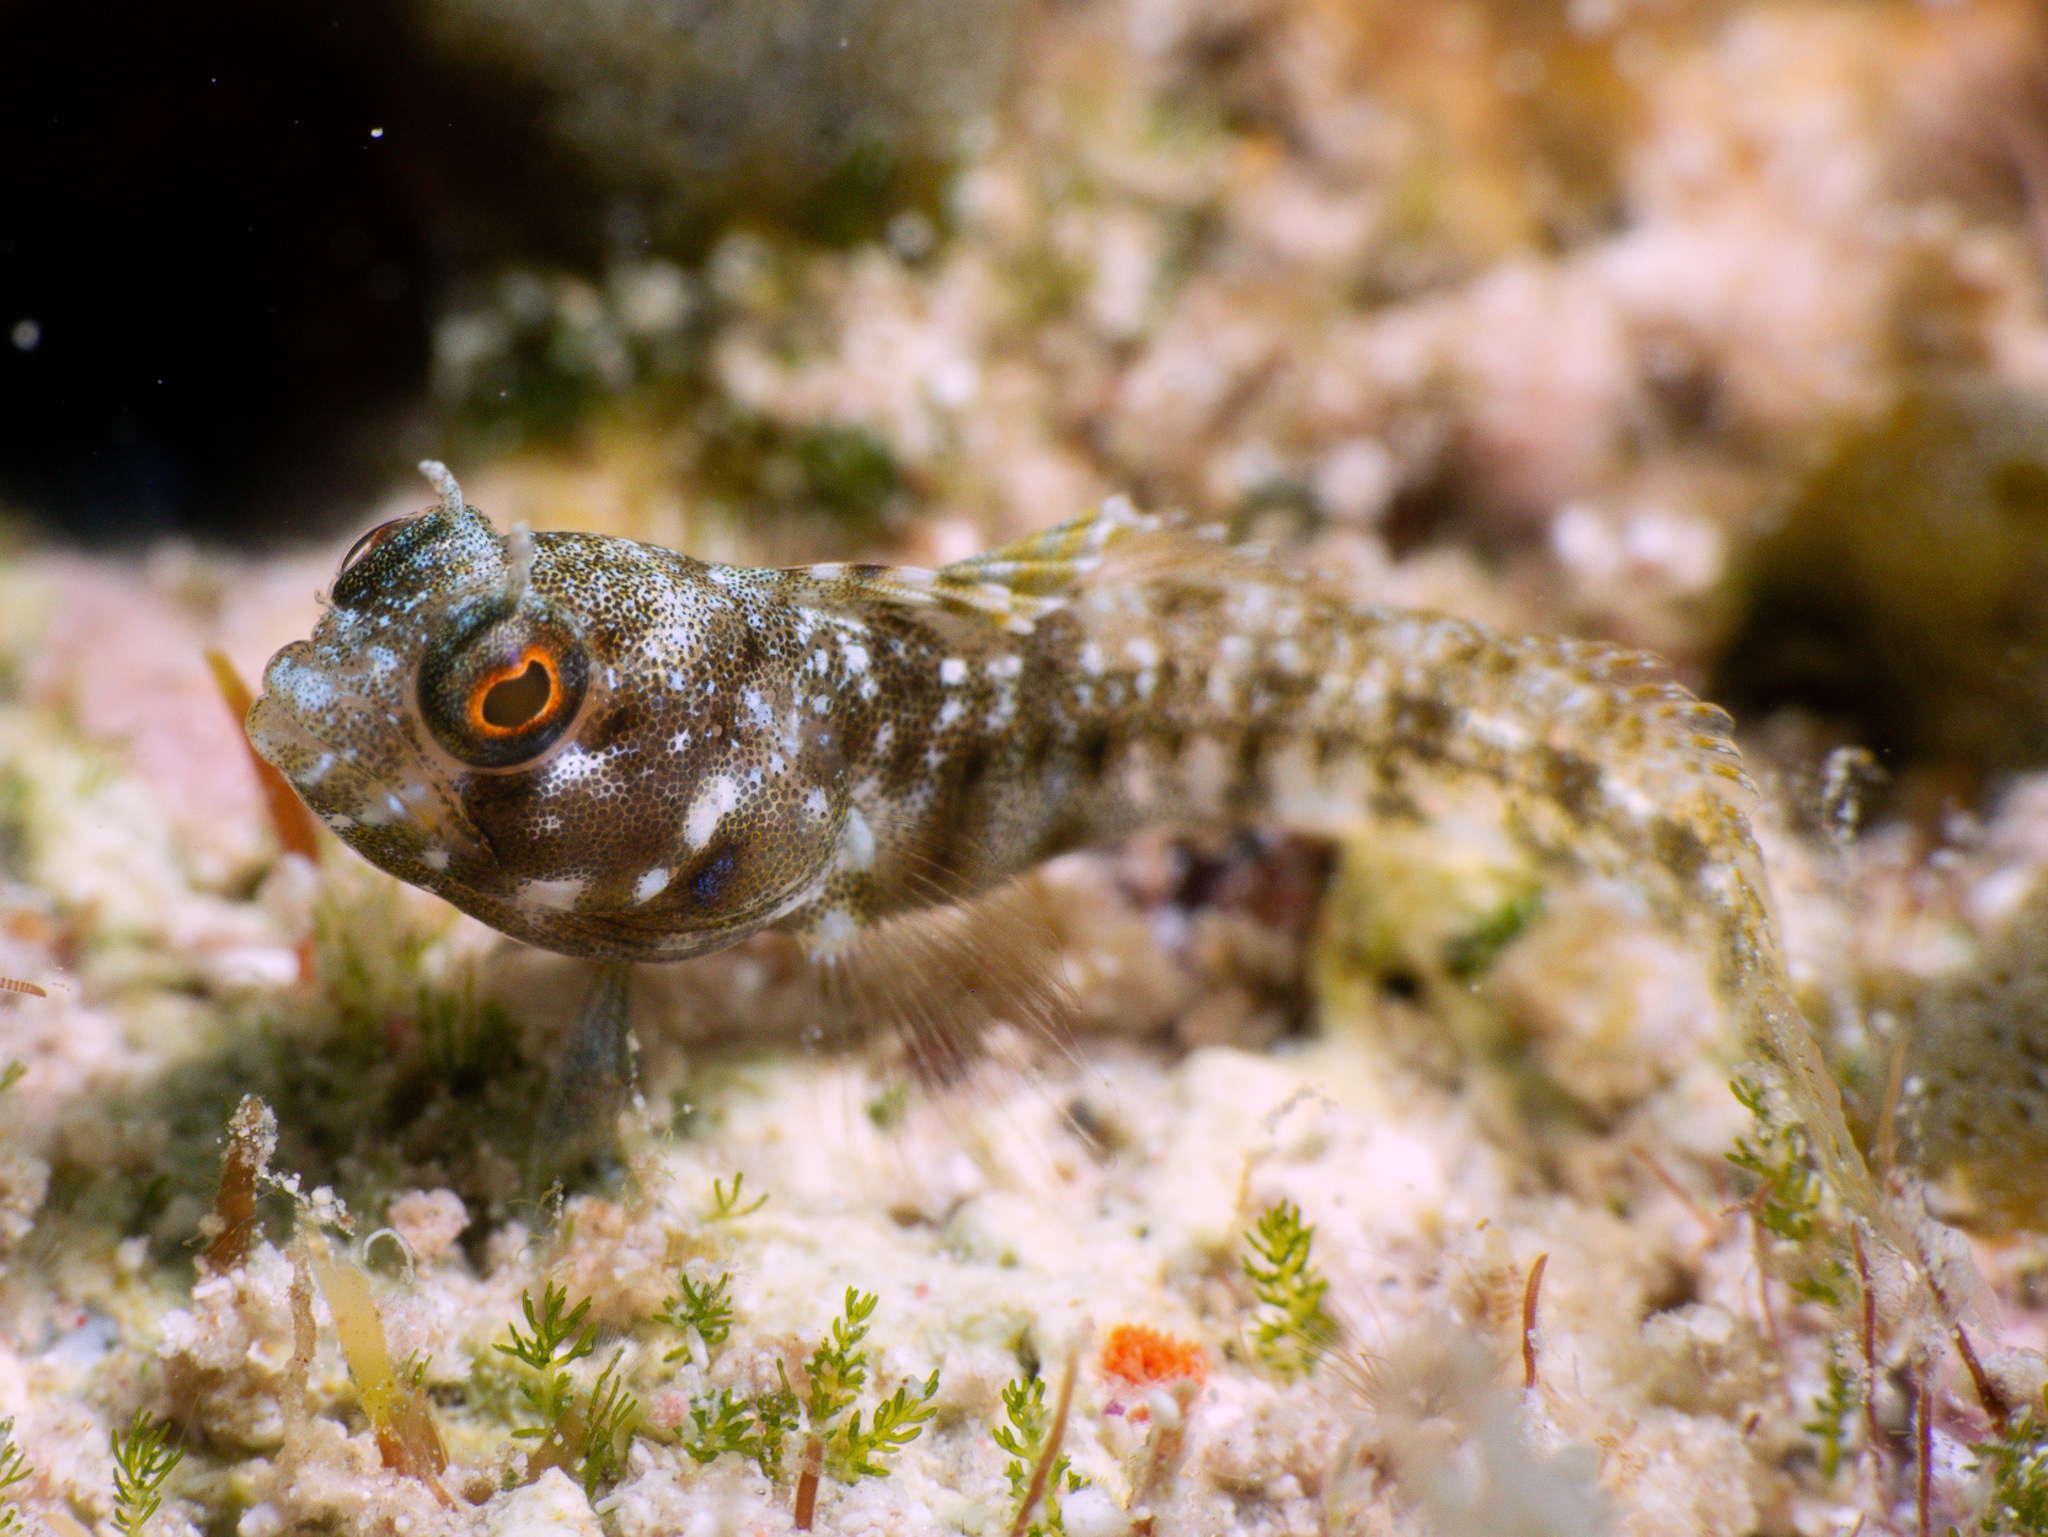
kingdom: Animalia
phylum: Chordata
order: Perciformes
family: Chaenopsidae
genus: Emblemaria
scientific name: Emblemaria pandionis
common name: Sailfin blenny
